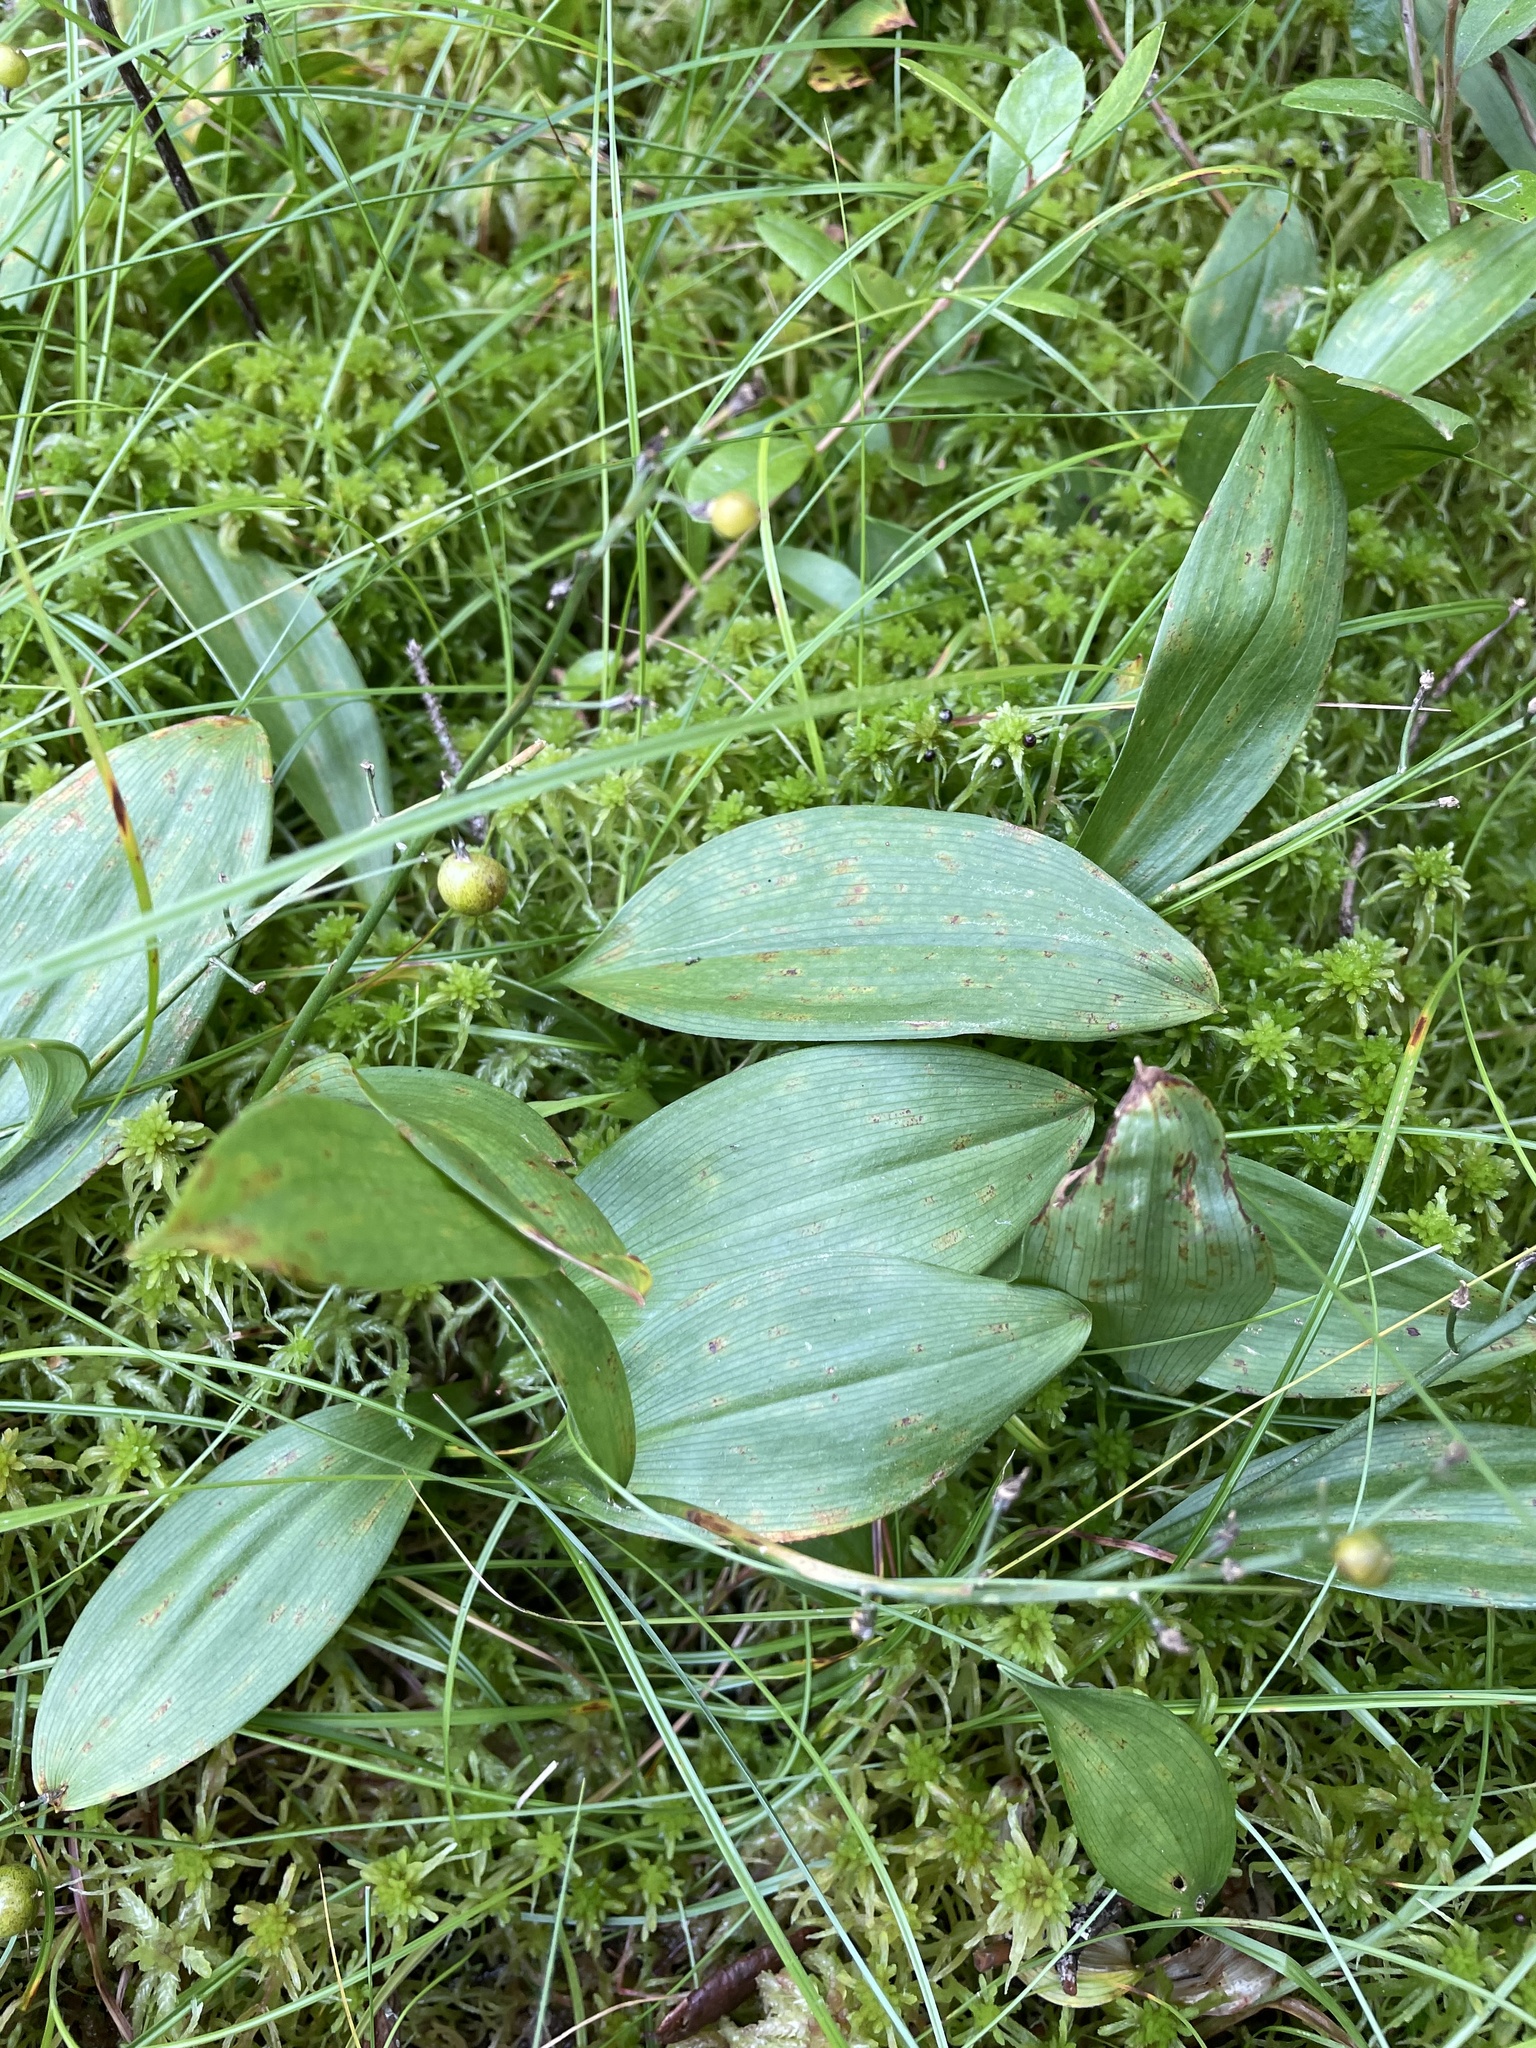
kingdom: Plantae
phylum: Tracheophyta
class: Liliopsida
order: Asparagales
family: Asparagaceae
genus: Maianthemum
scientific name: Maianthemum trifolium
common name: Swamp false solomon's seal
